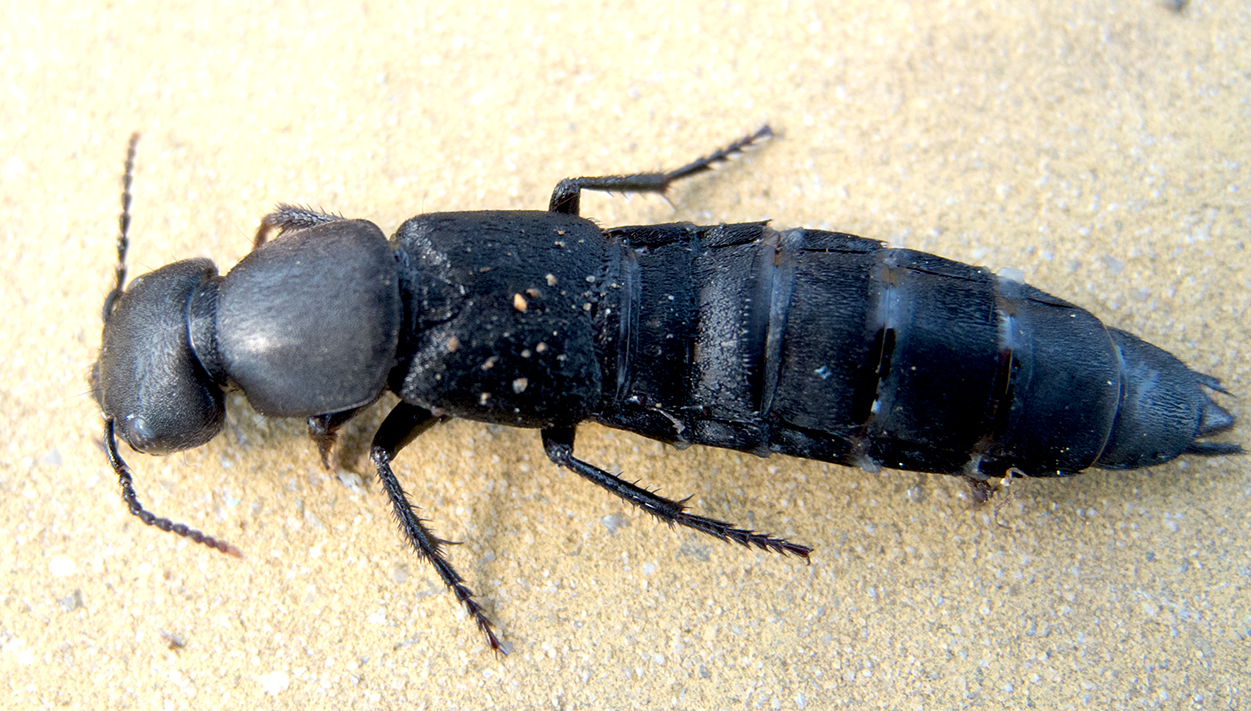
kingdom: Animalia
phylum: Arthropoda
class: Insecta
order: Coleoptera
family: Staphylinidae
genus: Ocypus
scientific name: Ocypus olens
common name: Devil's coach-horse
